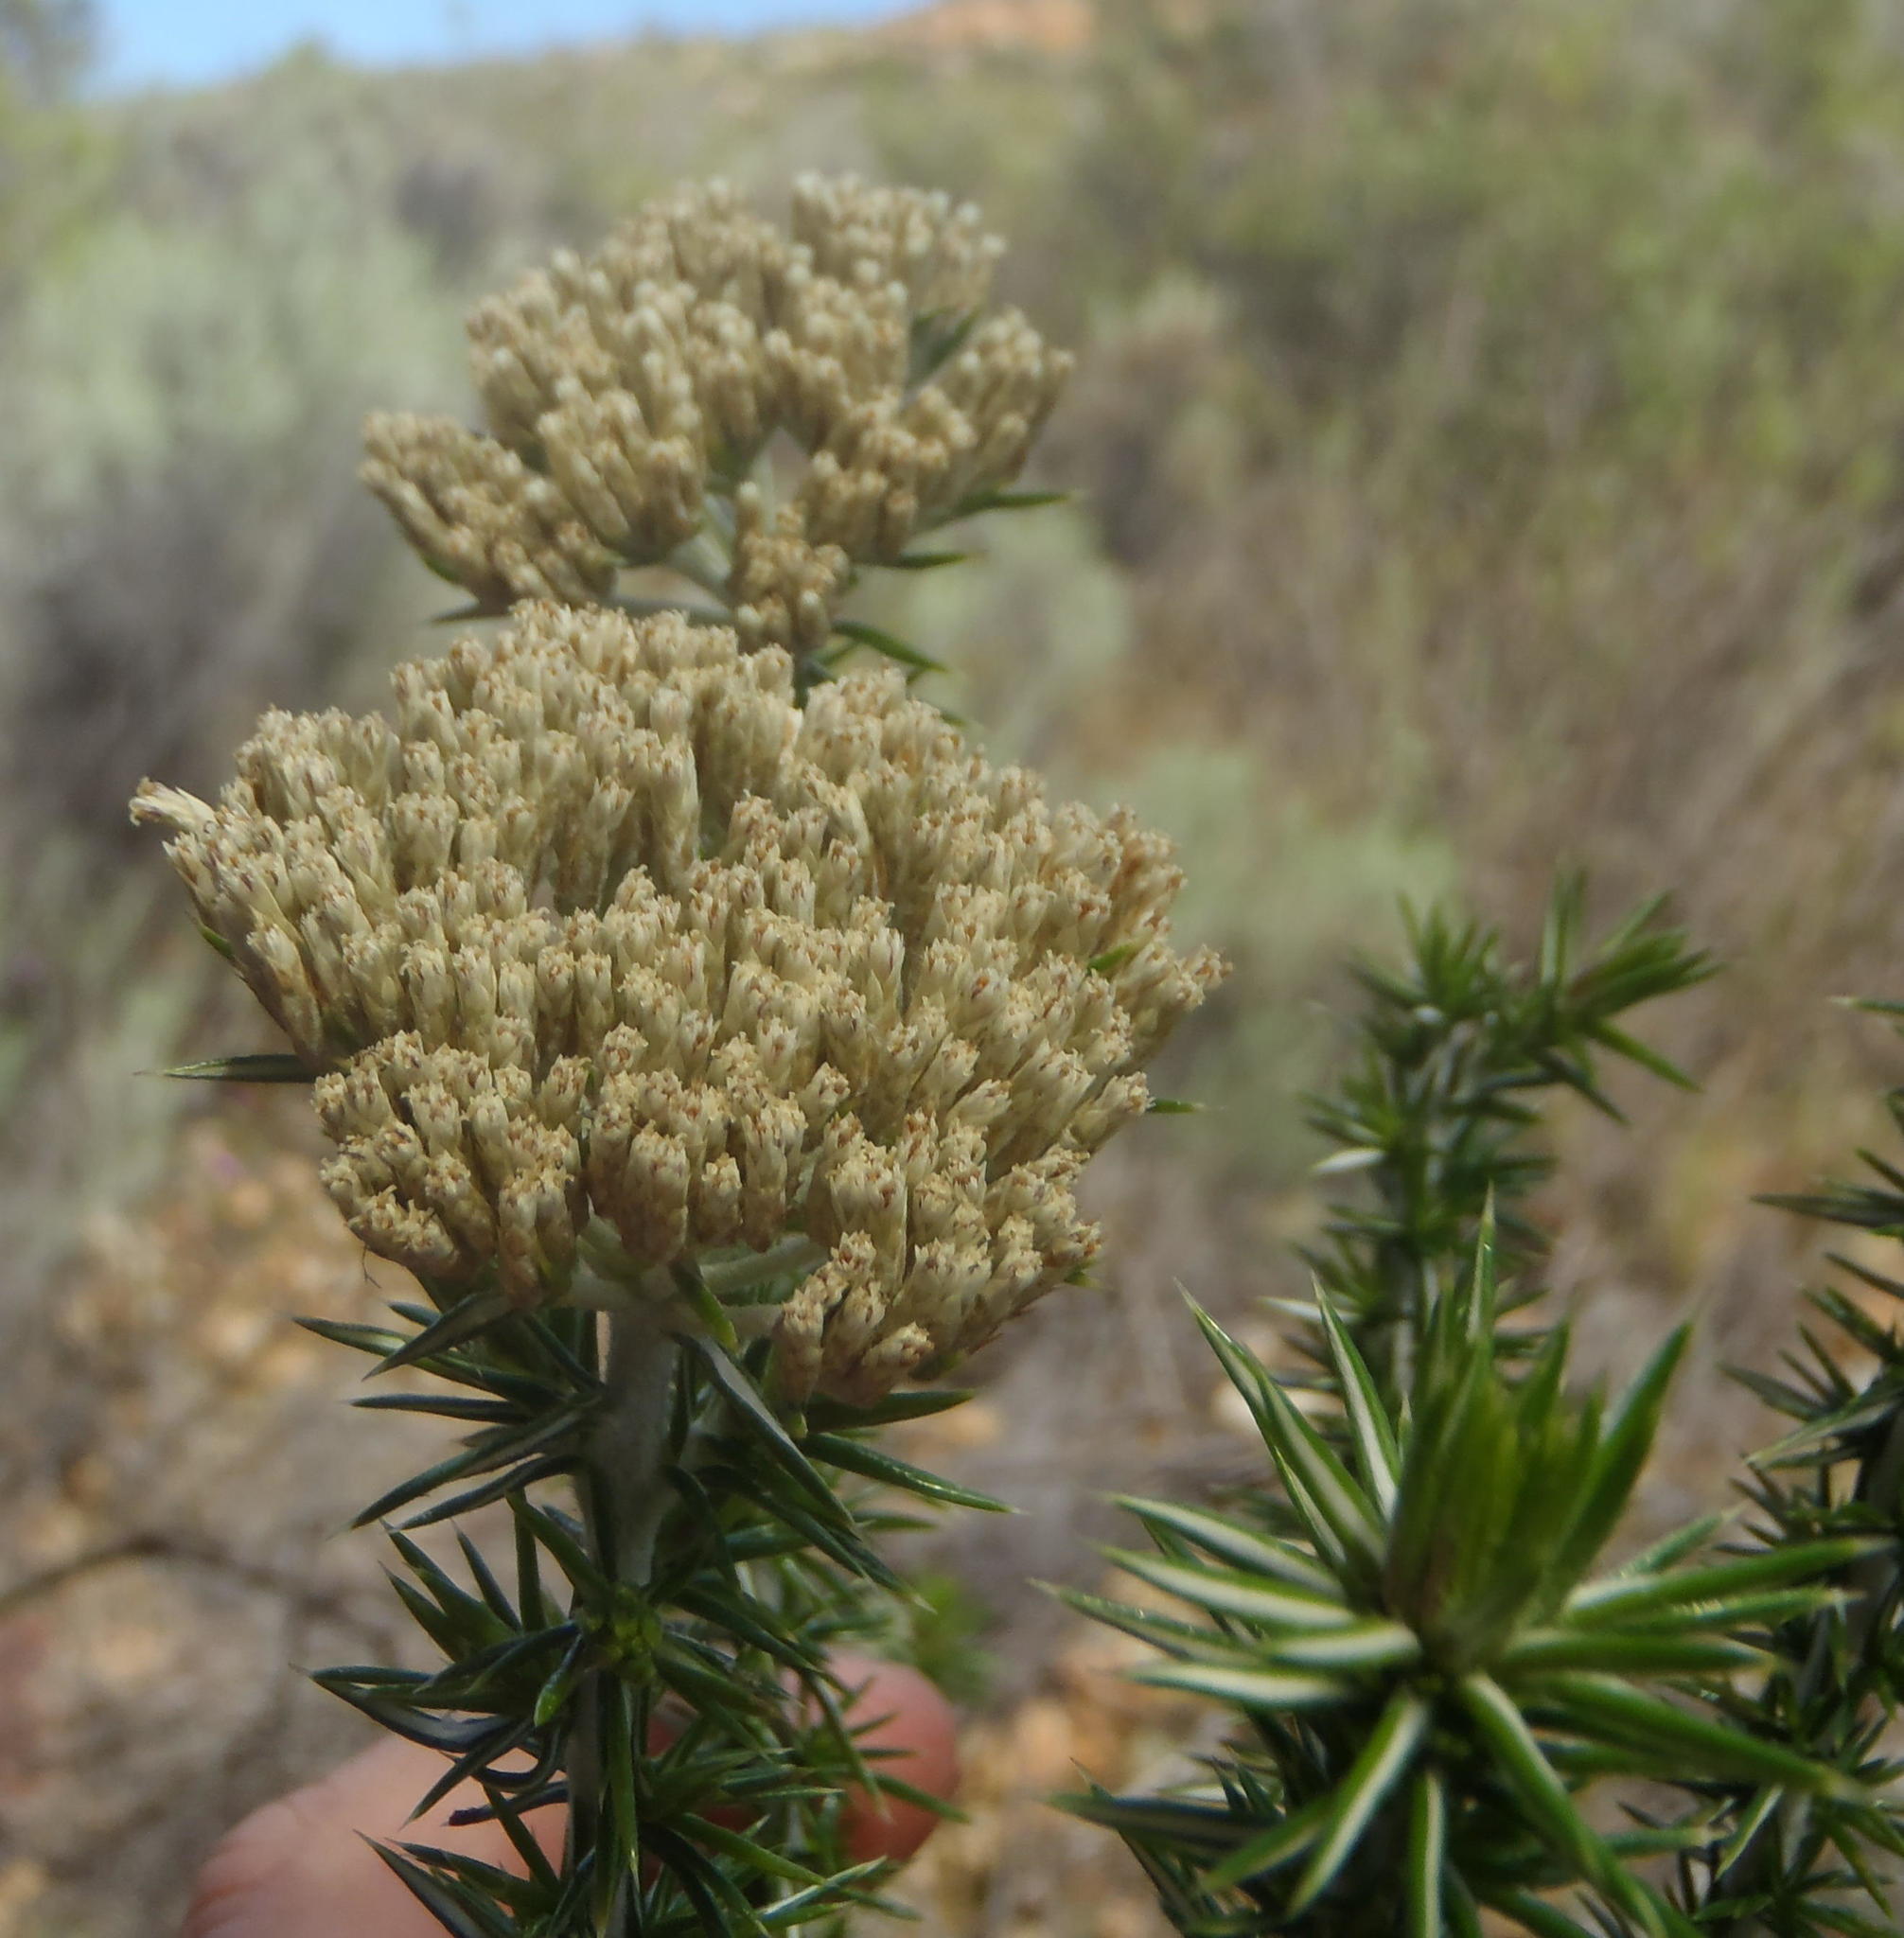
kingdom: Plantae
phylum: Tracheophyta
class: Magnoliopsida
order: Asterales
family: Asteraceae
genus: Metalasia
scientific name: Metalasia acuta
